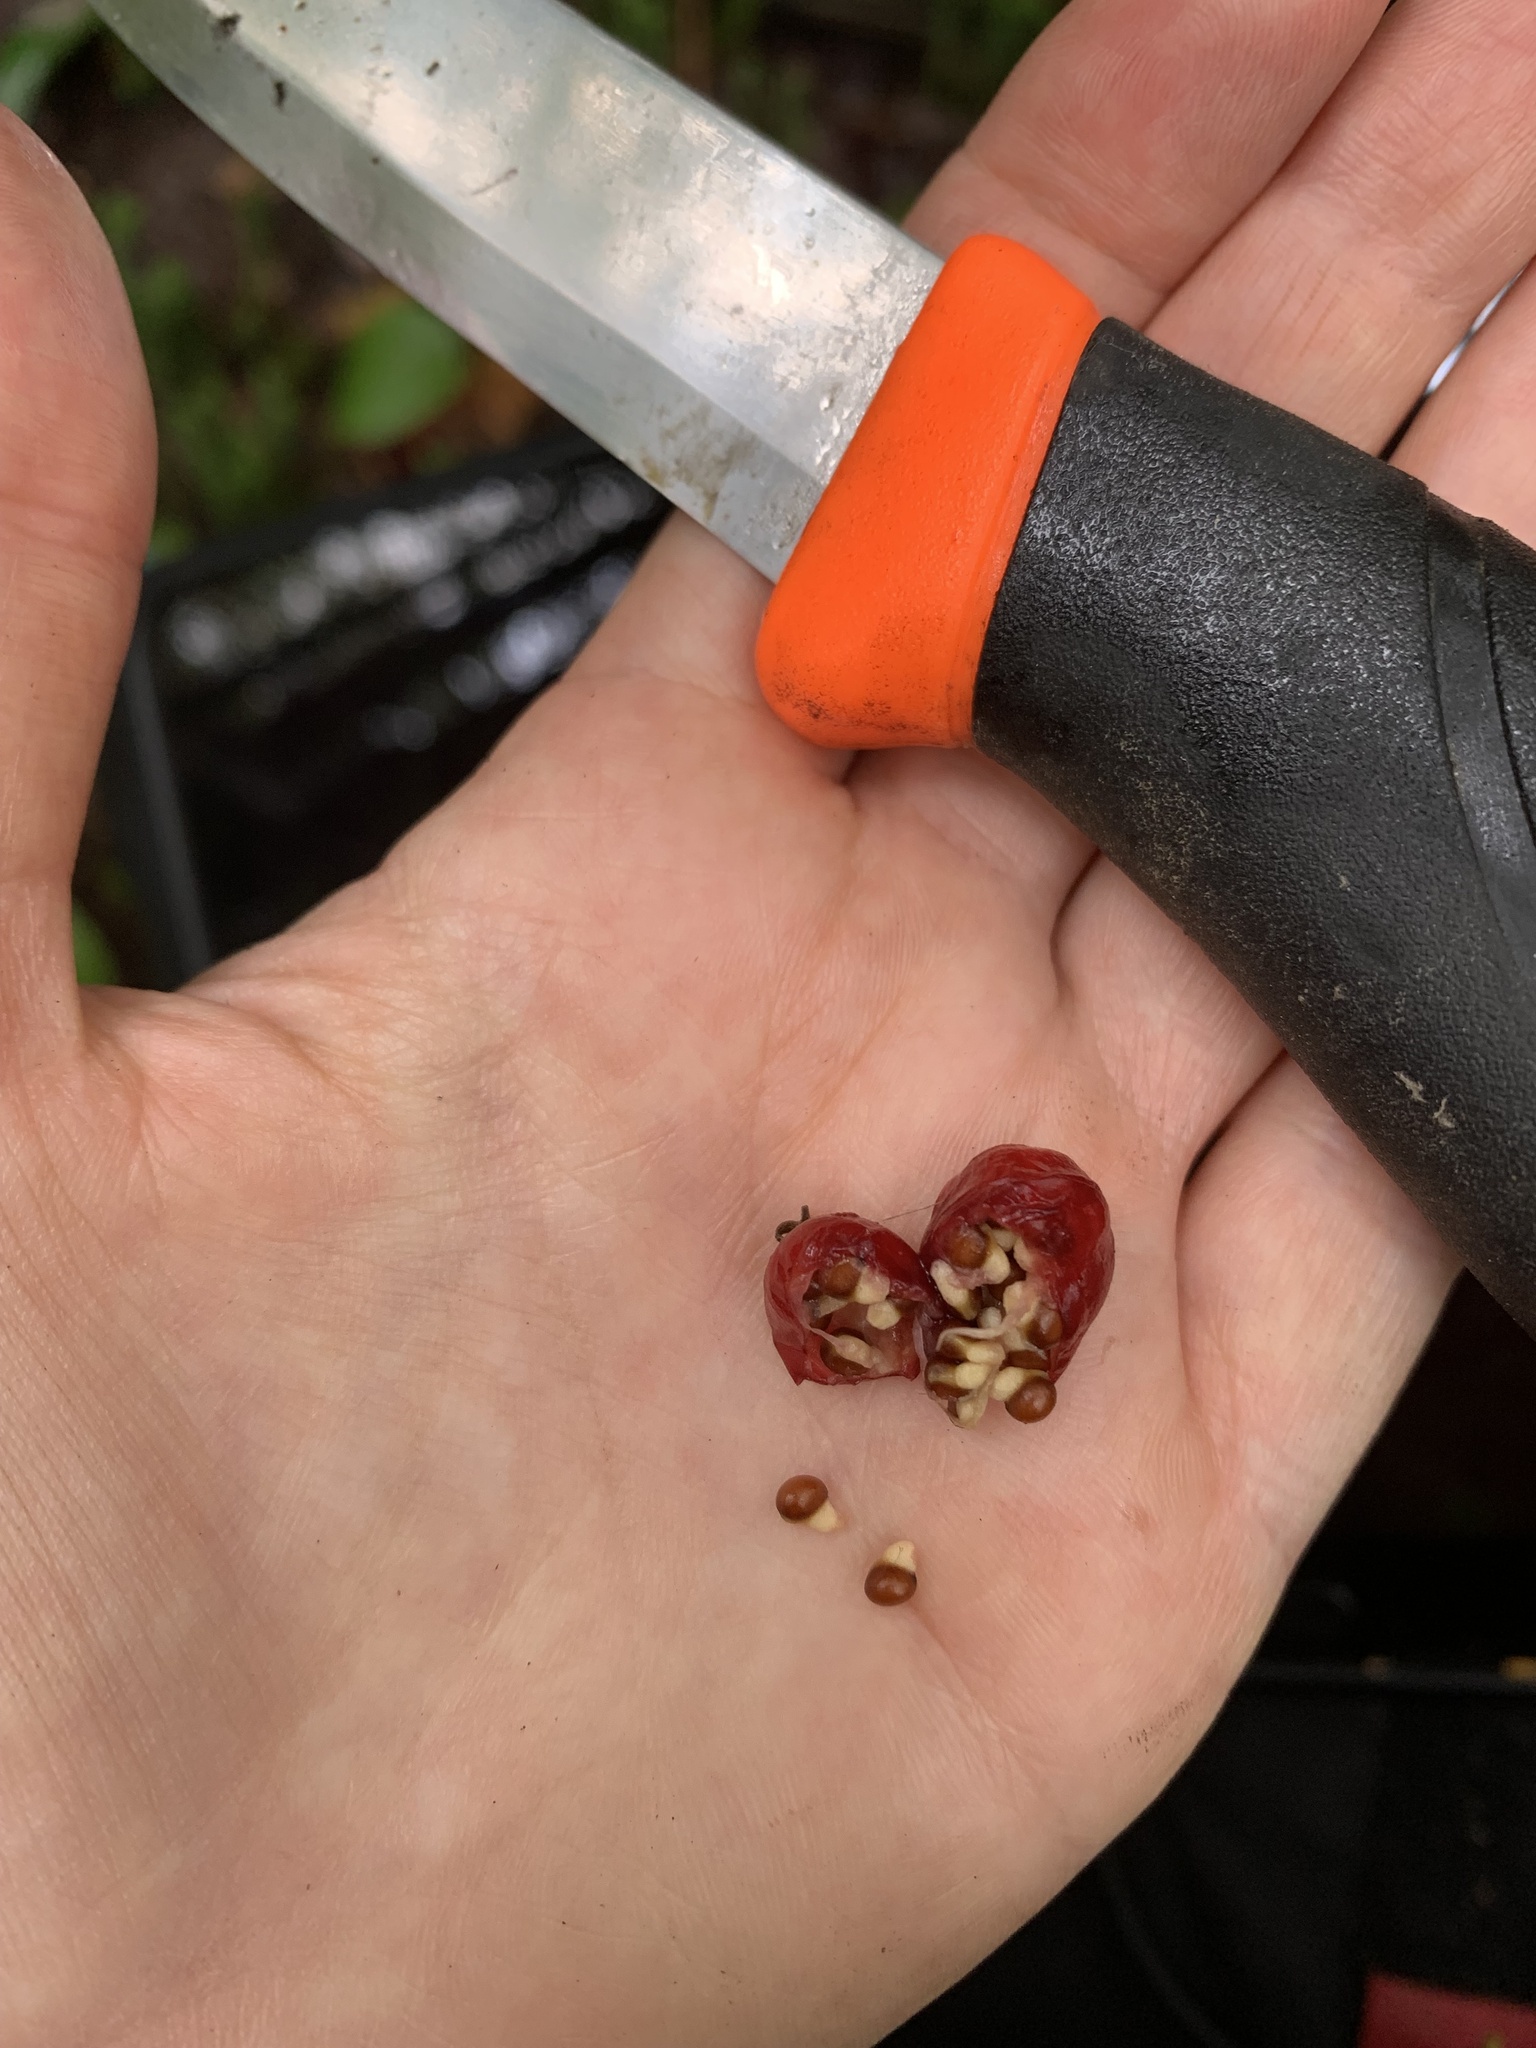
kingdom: Plantae
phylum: Tracheophyta
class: Liliopsida
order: Liliales
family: Melanthiaceae
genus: Trillium
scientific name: Trillium undulatum
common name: Paint trillium
